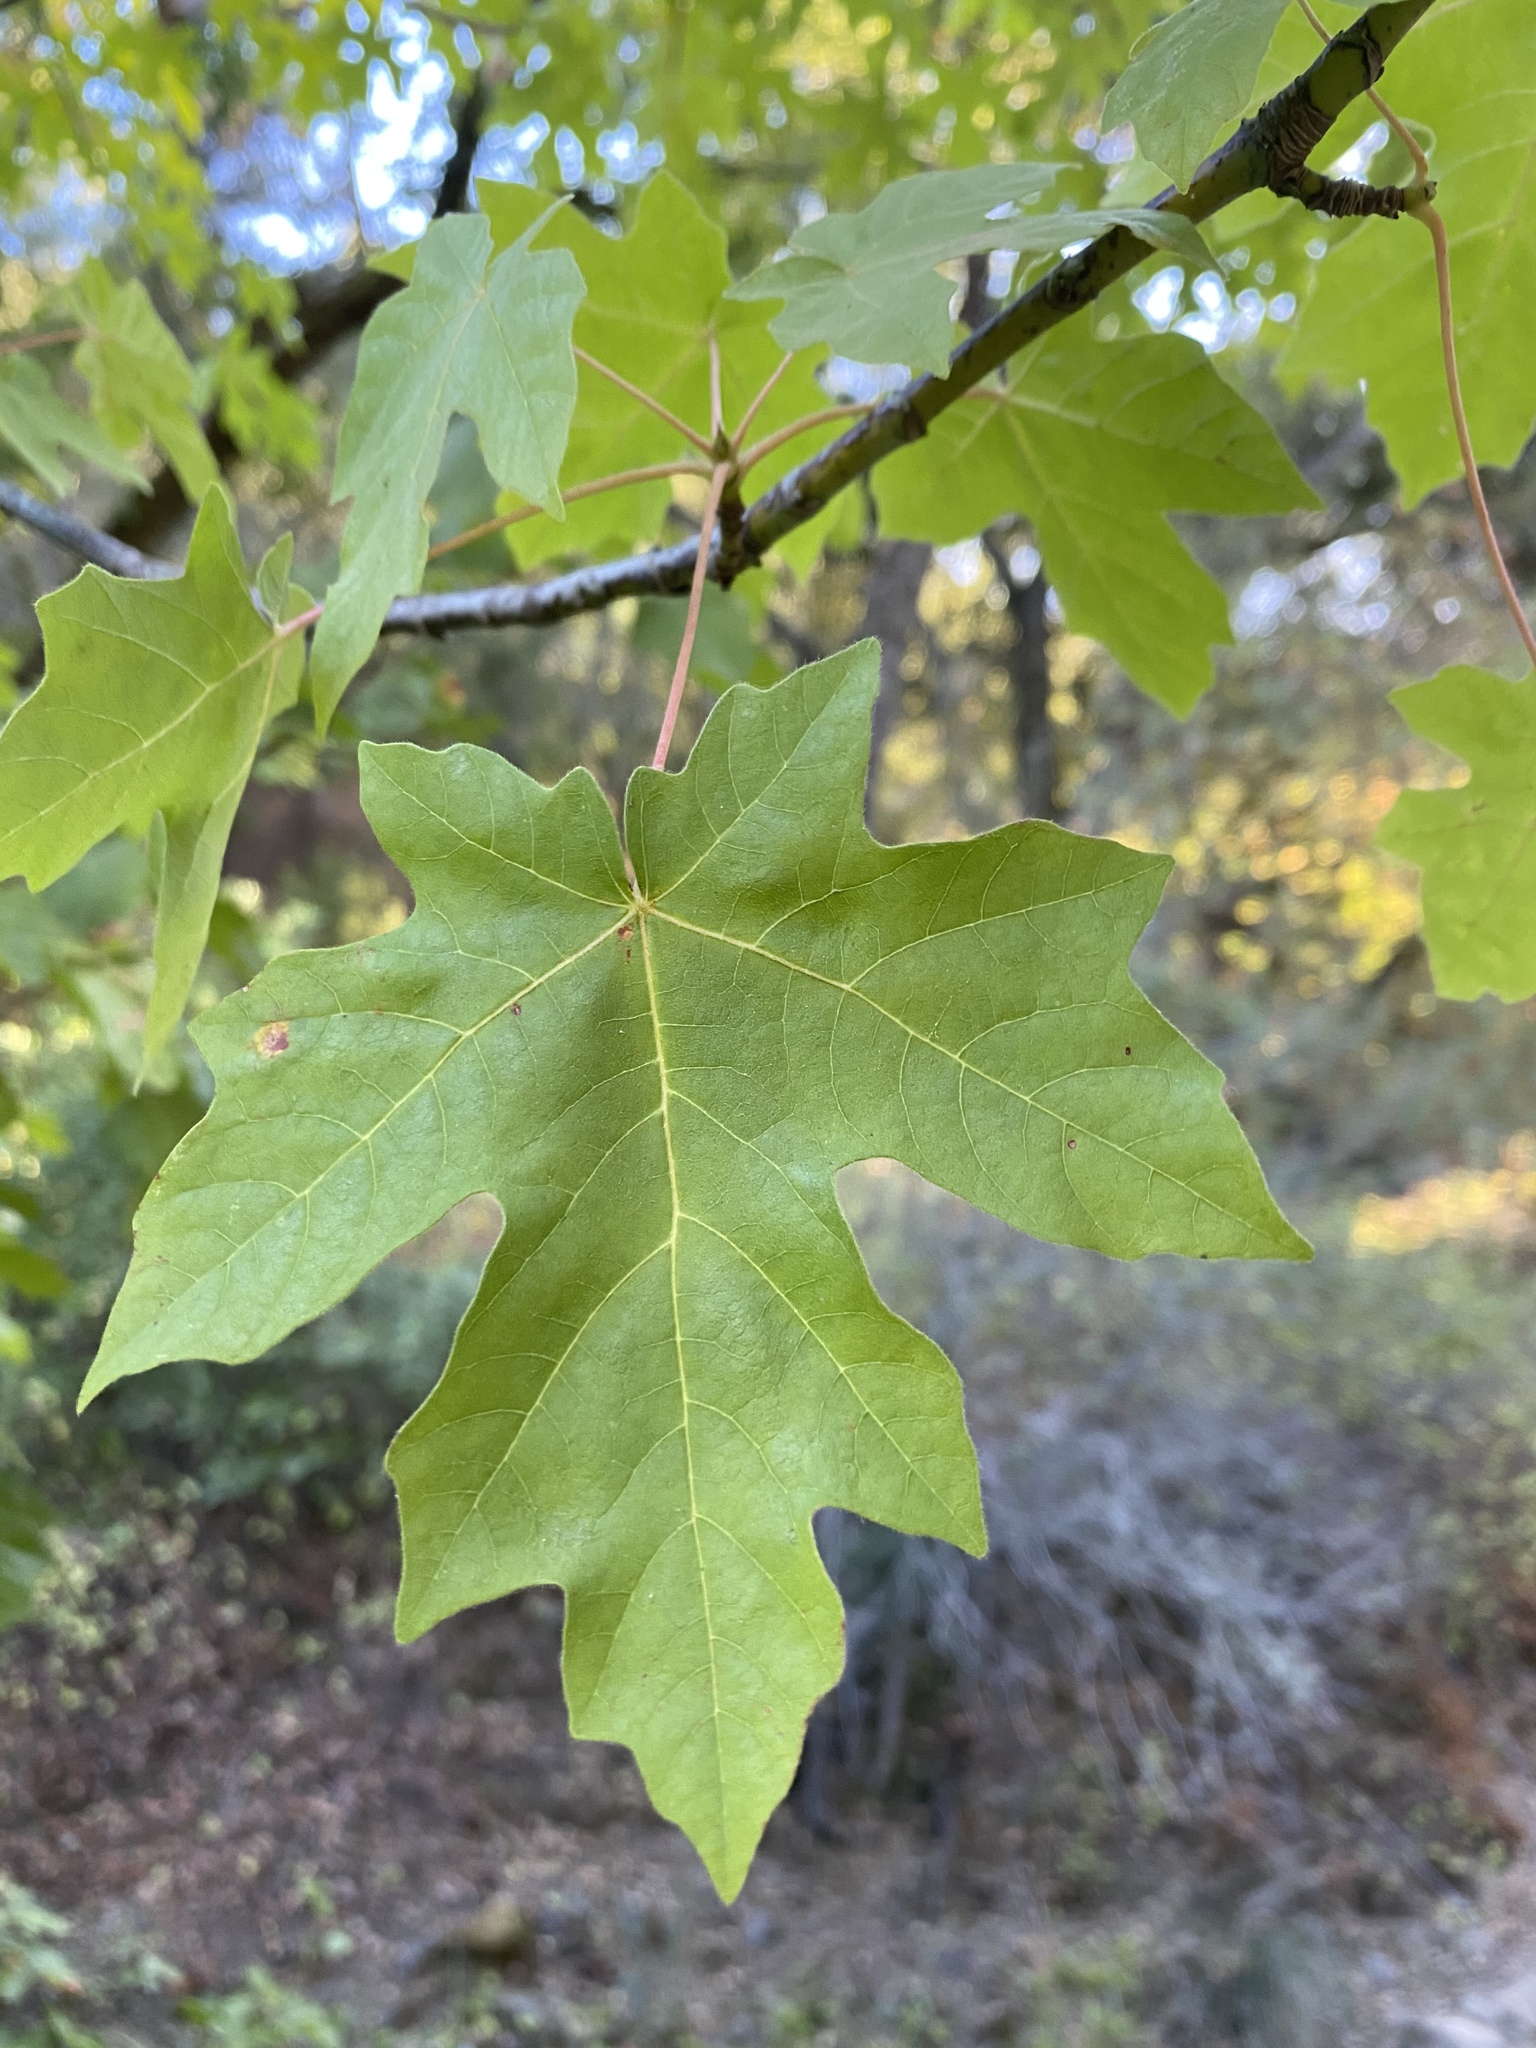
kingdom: Plantae
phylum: Tracheophyta
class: Magnoliopsida
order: Sapindales
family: Sapindaceae
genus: Acer
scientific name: Acer macrophyllum
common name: Oregon maple
